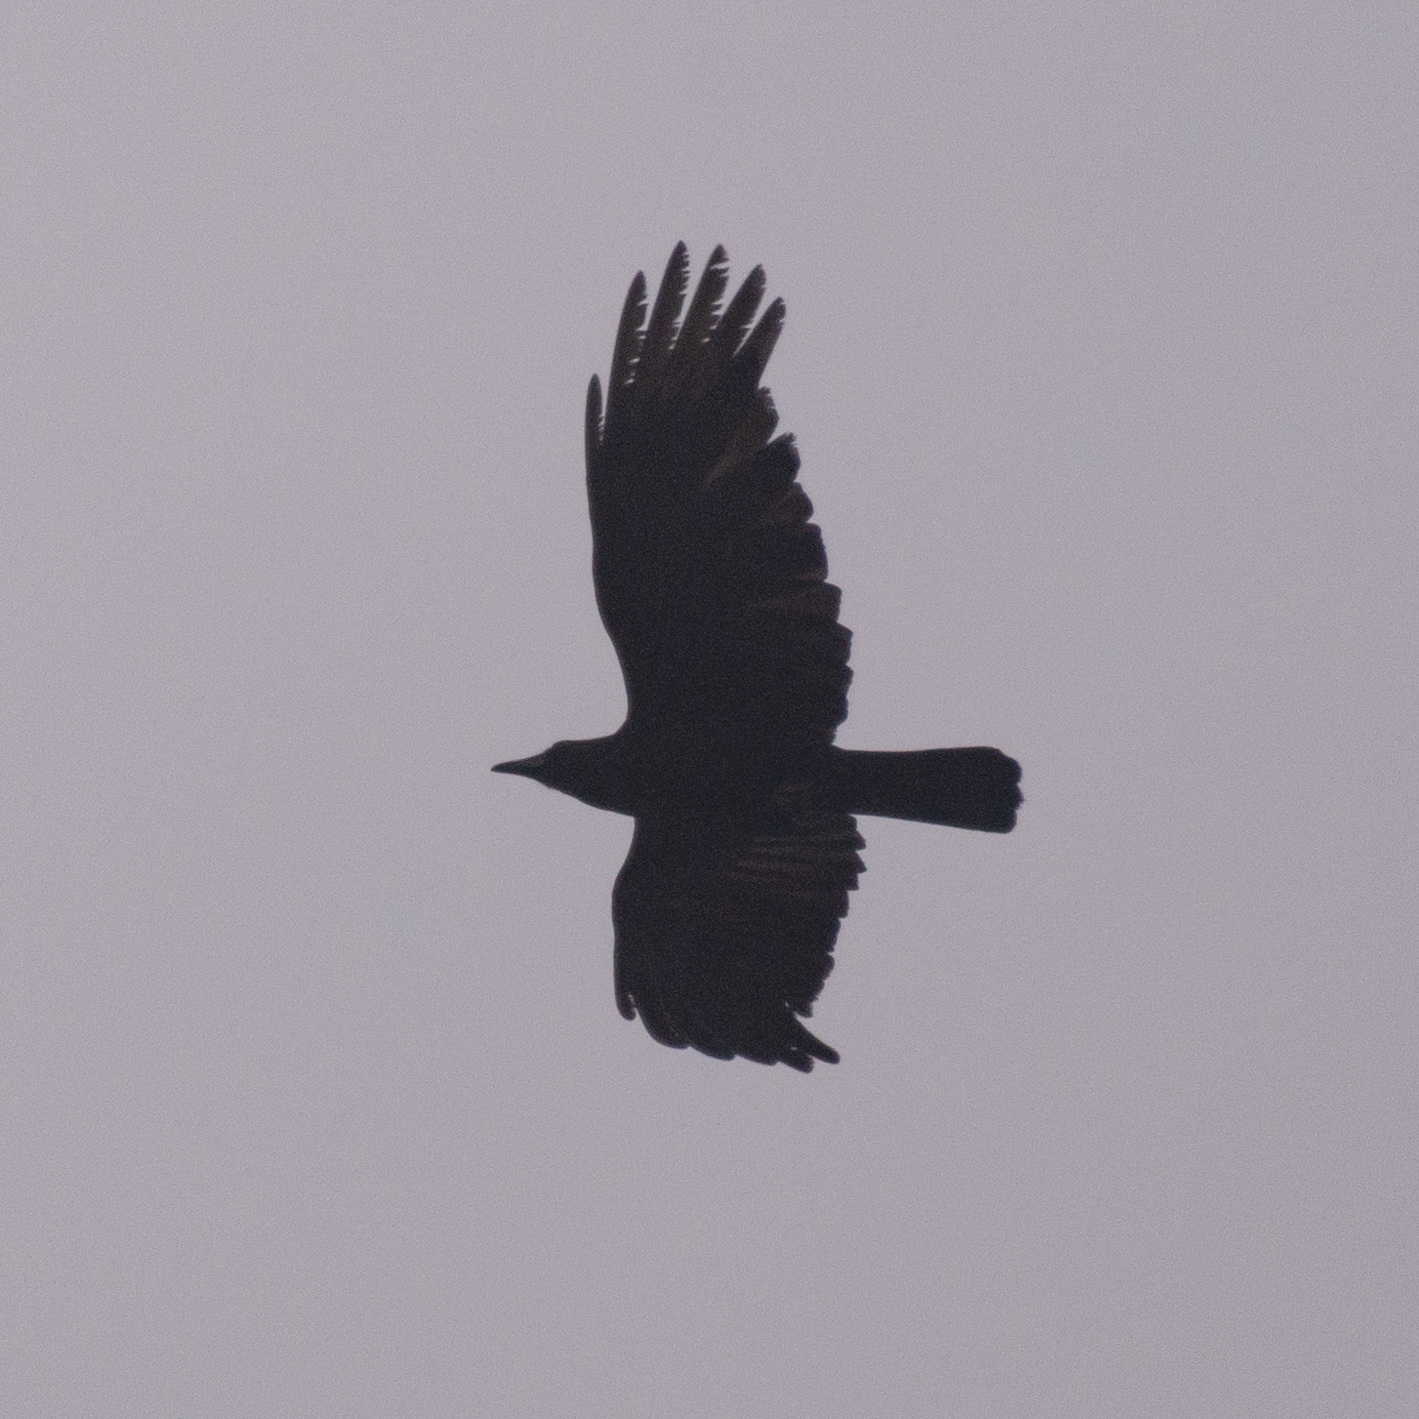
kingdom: Animalia
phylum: Chordata
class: Aves
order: Passeriformes
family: Corvidae
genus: Corvus
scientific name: Corvus corone
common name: Carrion crow
